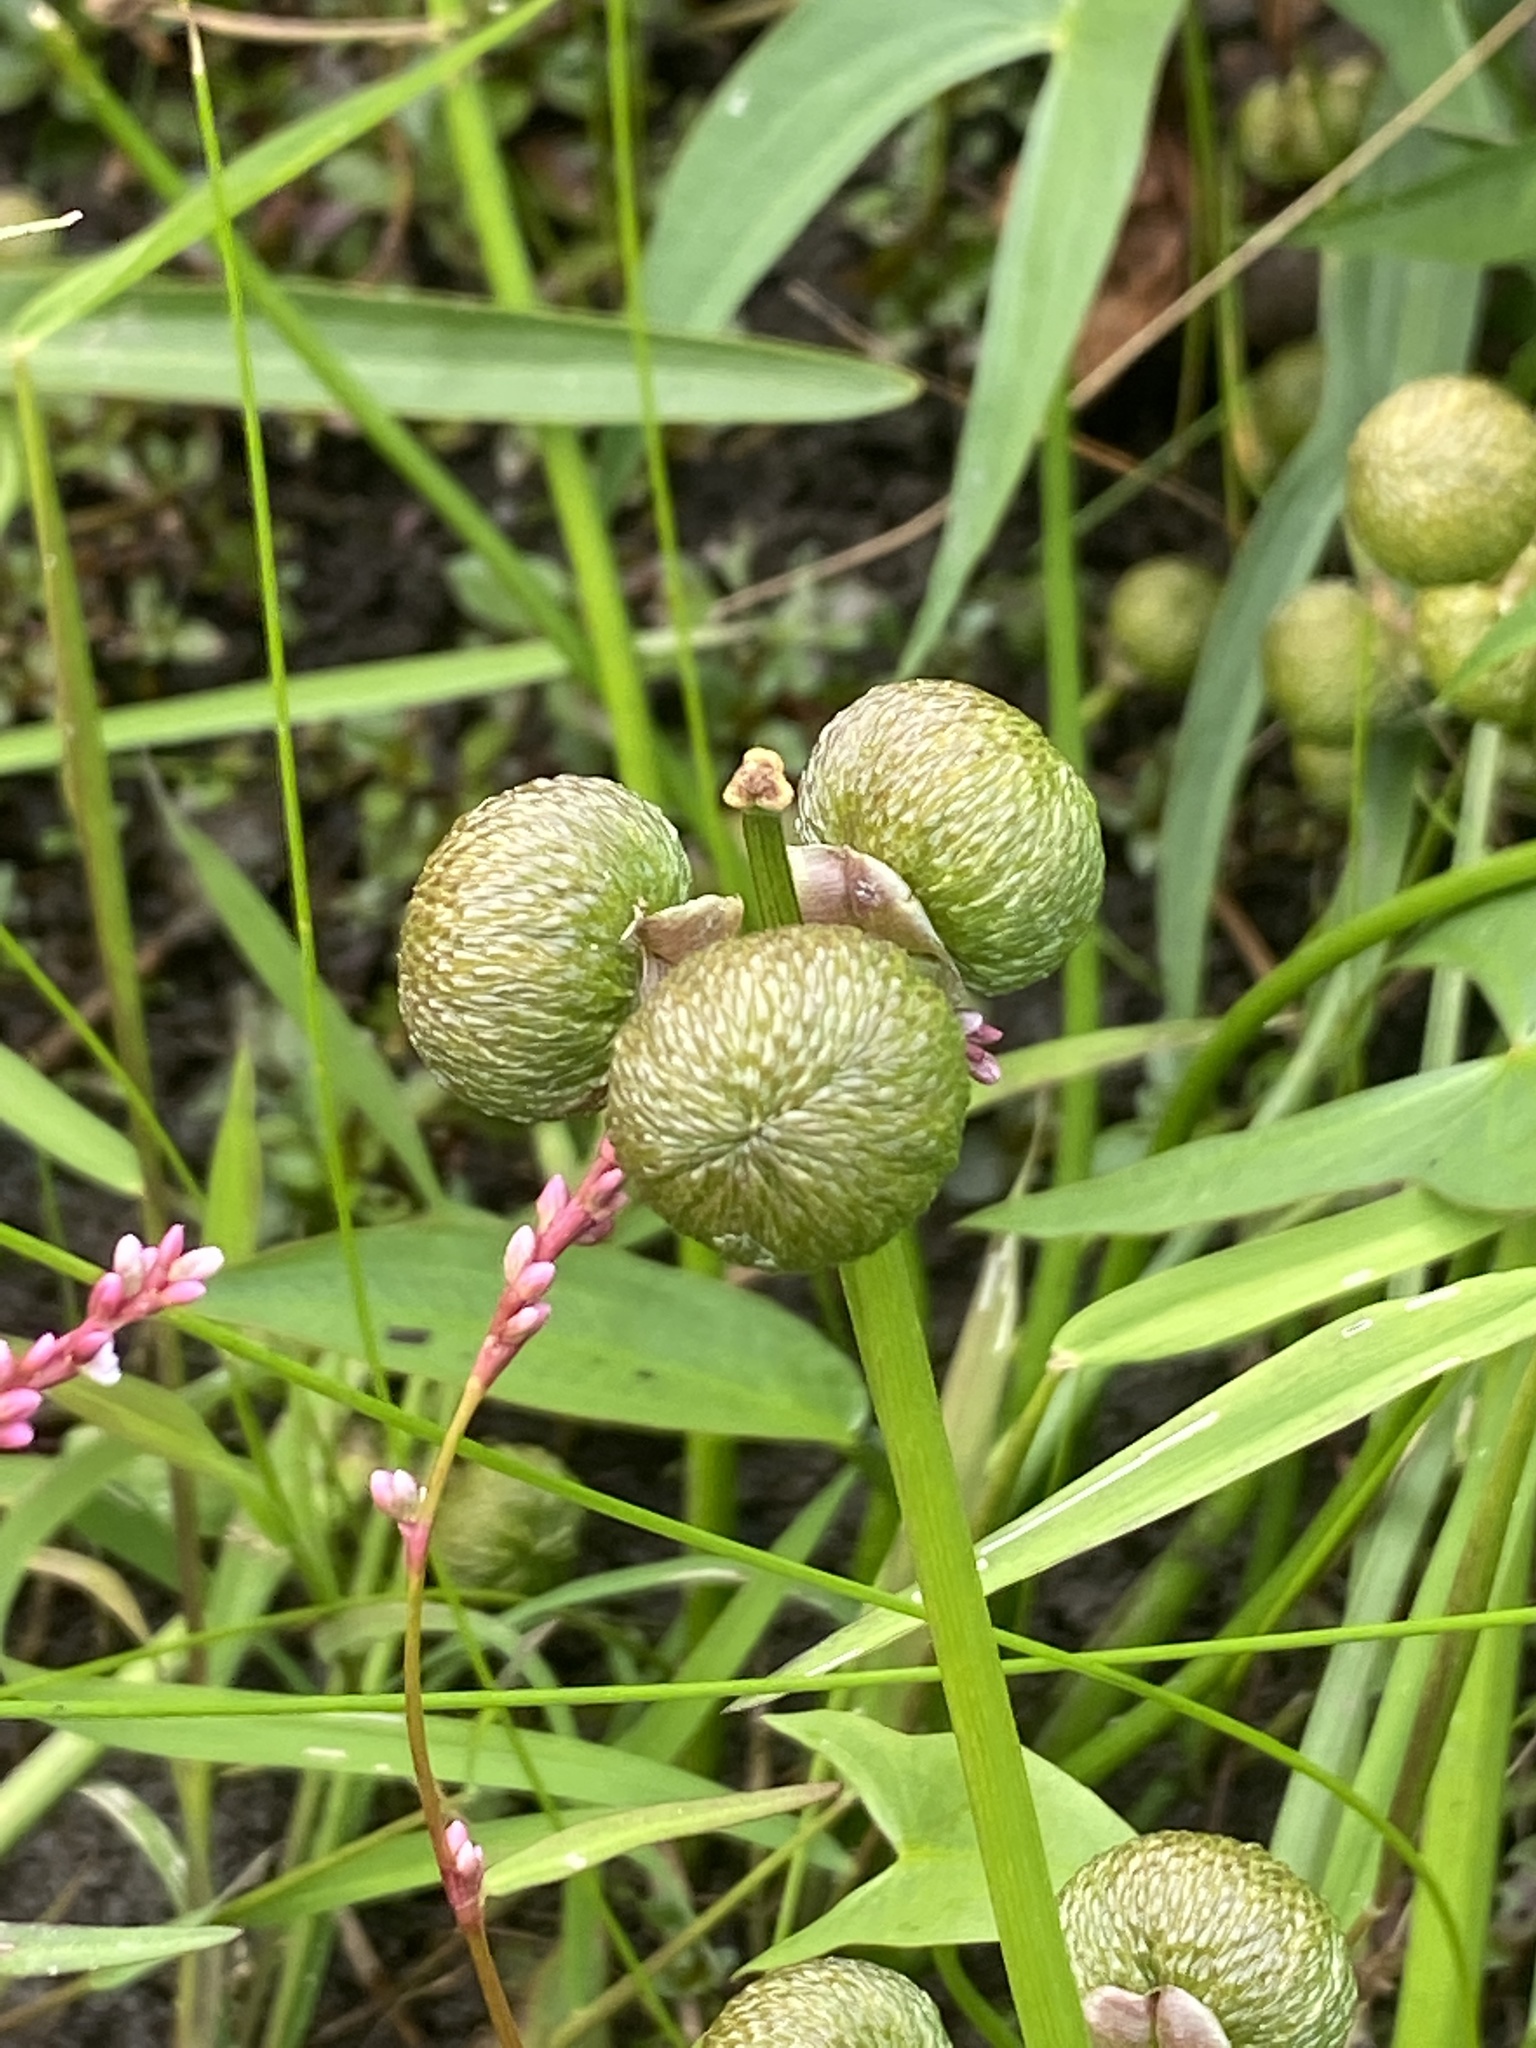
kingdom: Plantae
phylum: Tracheophyta
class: Liliopsida
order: Alismatales
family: Alismataceae
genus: Sagittaria
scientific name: Sagittaria latifolia
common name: Duck-potato
